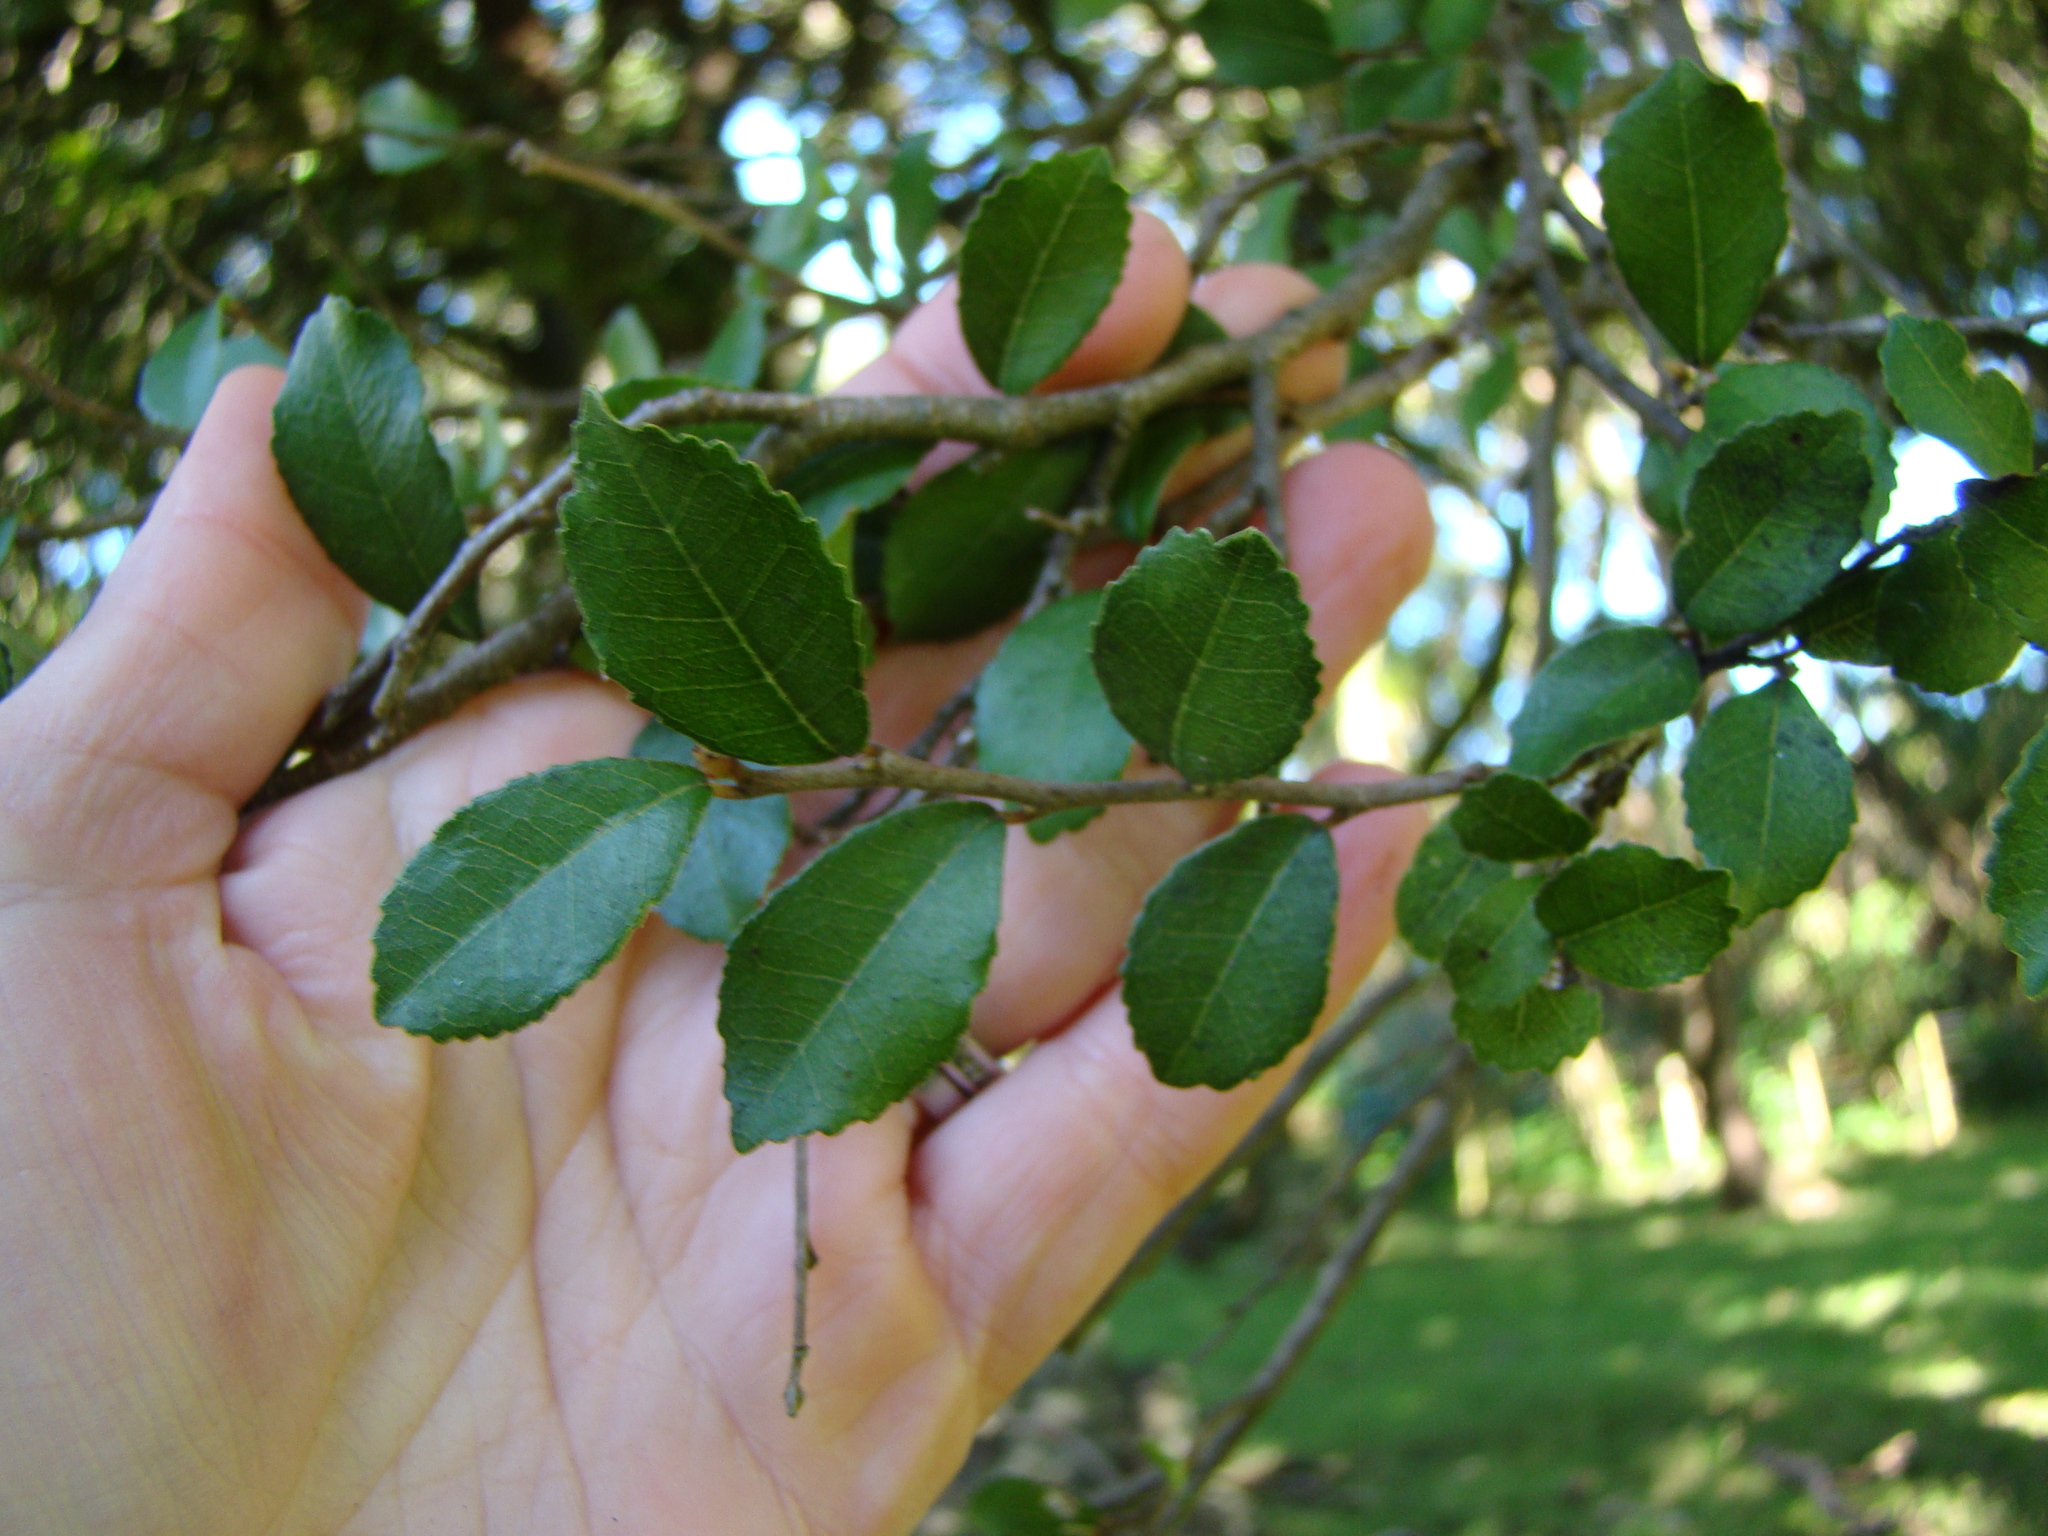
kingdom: Plantae
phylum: Tracheophyta
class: Magnoliopsida
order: Rosales
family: Moraceae
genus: Paratrophis
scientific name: Paratrophis banksii
